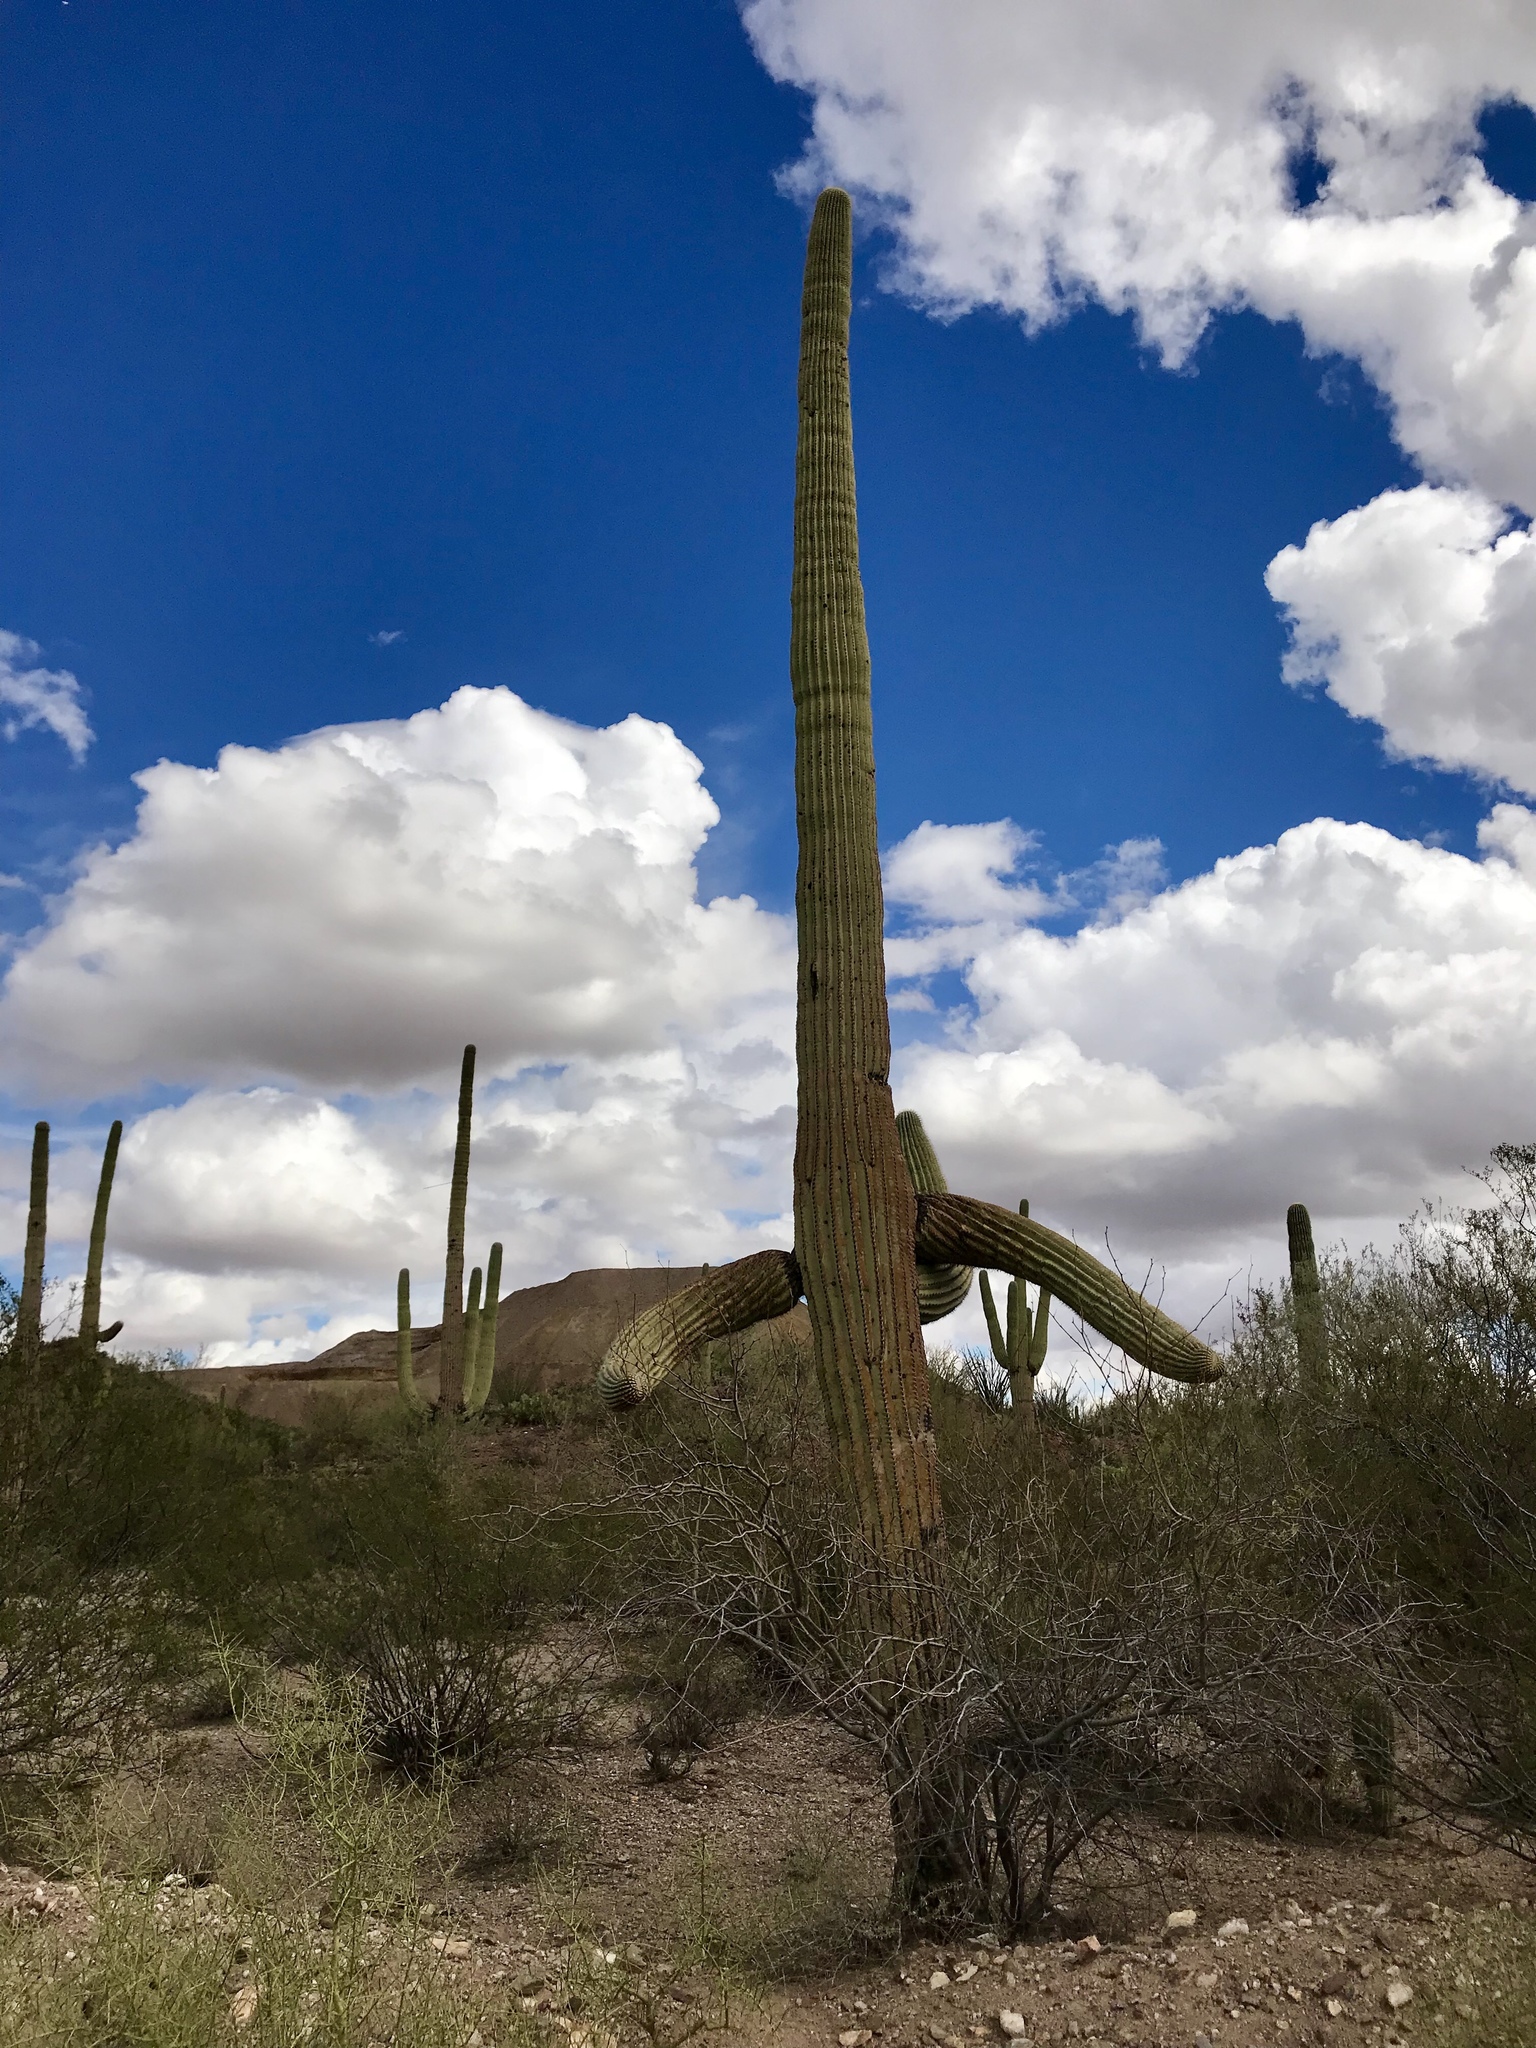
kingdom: Plantae
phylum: Tracheophyta
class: Magnoliopsida
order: Caryophyllales
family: Cactaceae
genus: Carnegiea
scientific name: Carnegiea gigantea
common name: Saguaro
